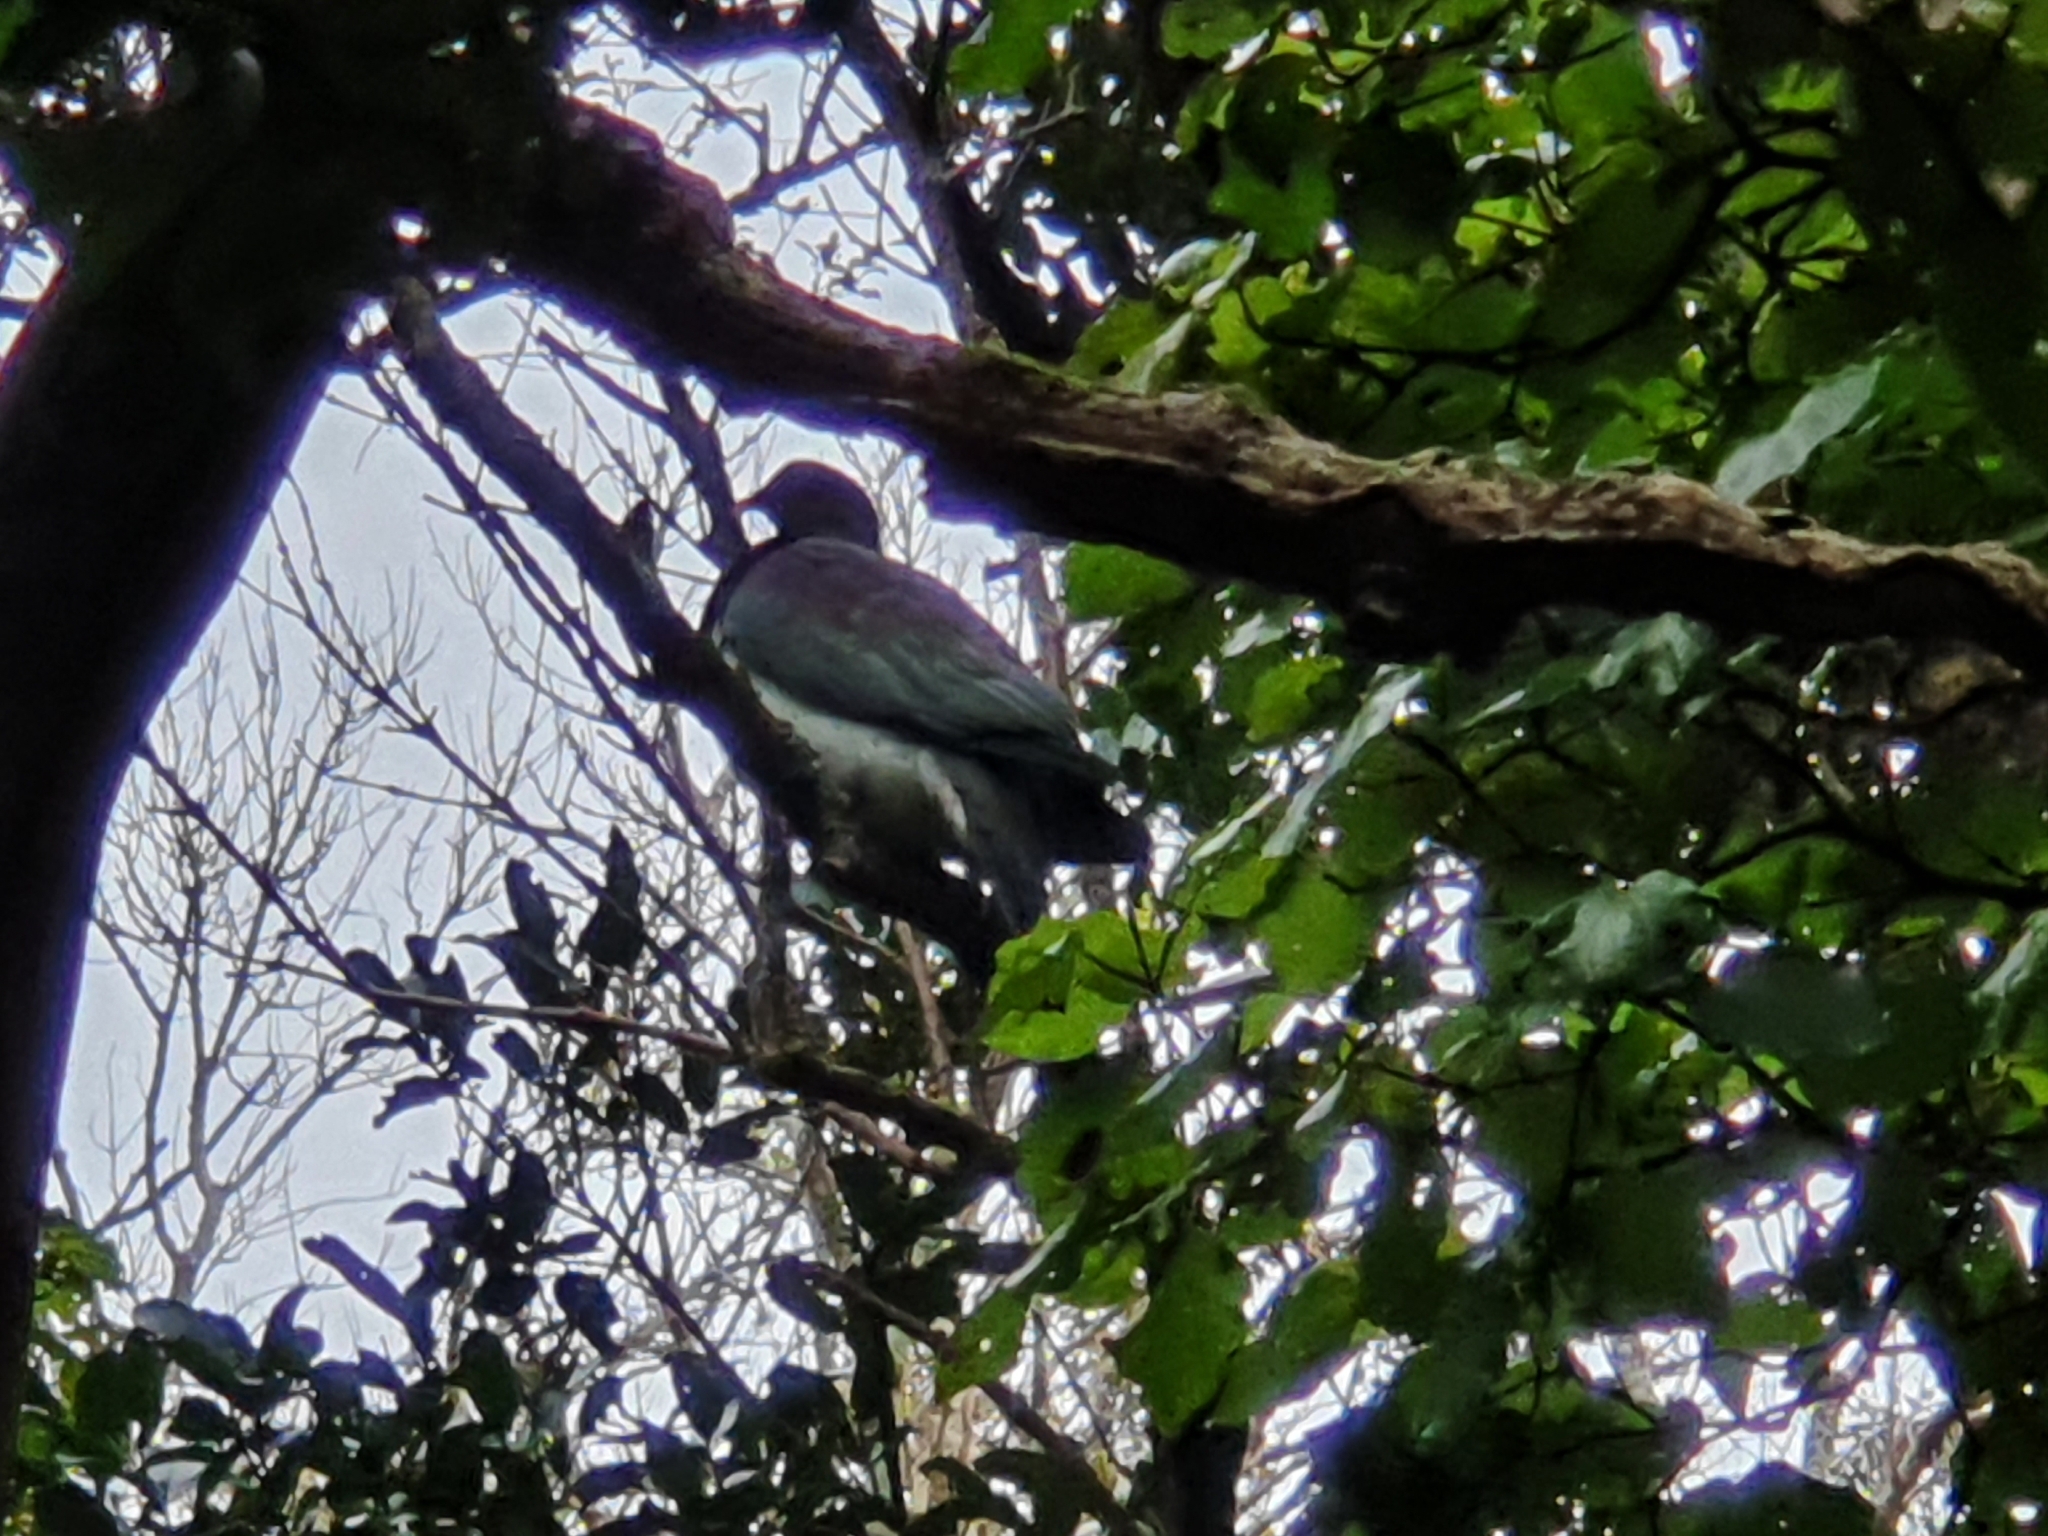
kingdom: Animalia
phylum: Chordata
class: Aves
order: Columbiformes
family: Columbidae
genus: Hemiphaga
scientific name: Hemiphaga novaeseelandiae
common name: New zealand pigeon
